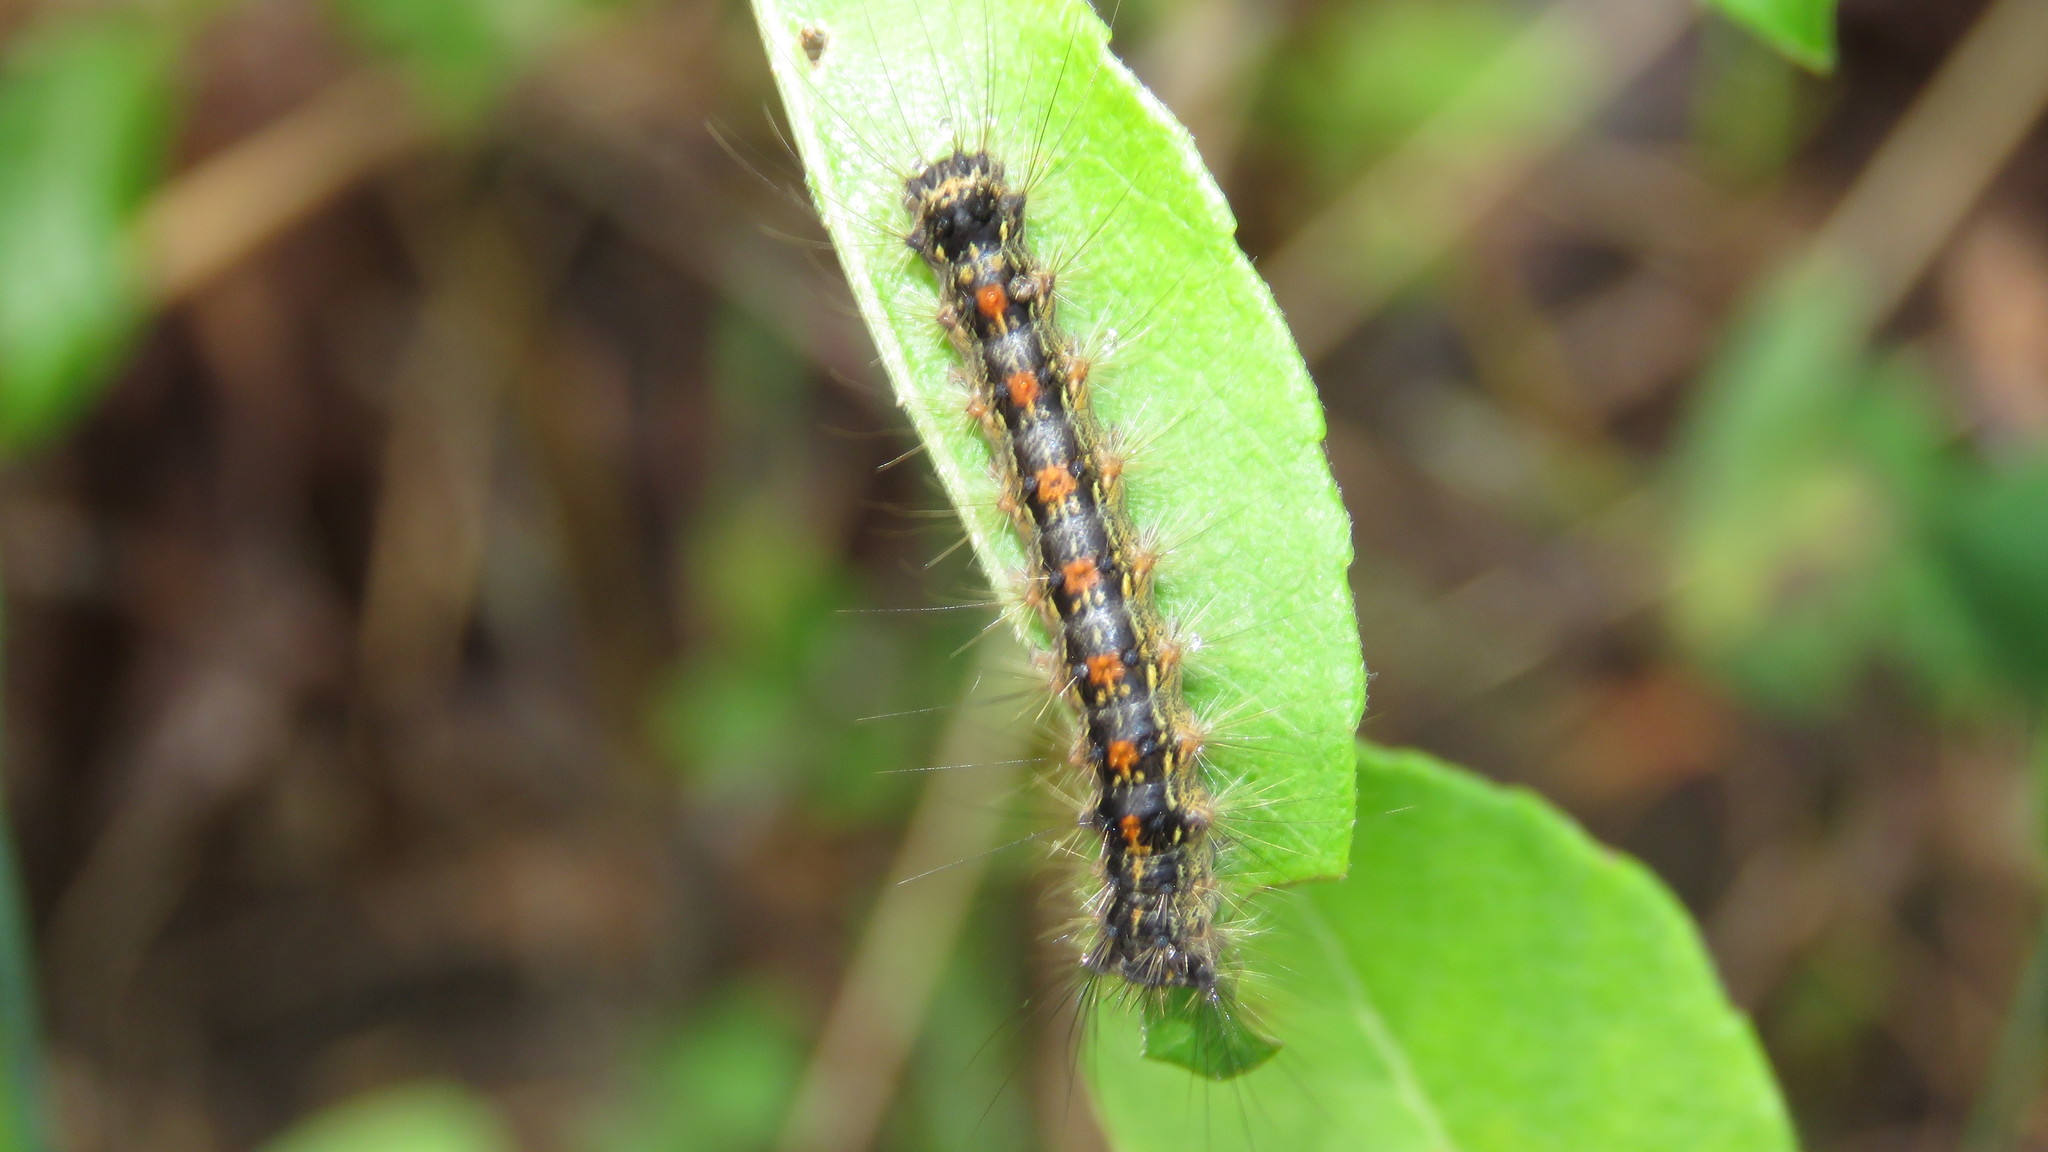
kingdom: Animalia
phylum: Arthropoda
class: Insecta
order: Lepidoptera
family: Erebidae
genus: Lymantria
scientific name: Lymantria dispar
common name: Gypsy moth
